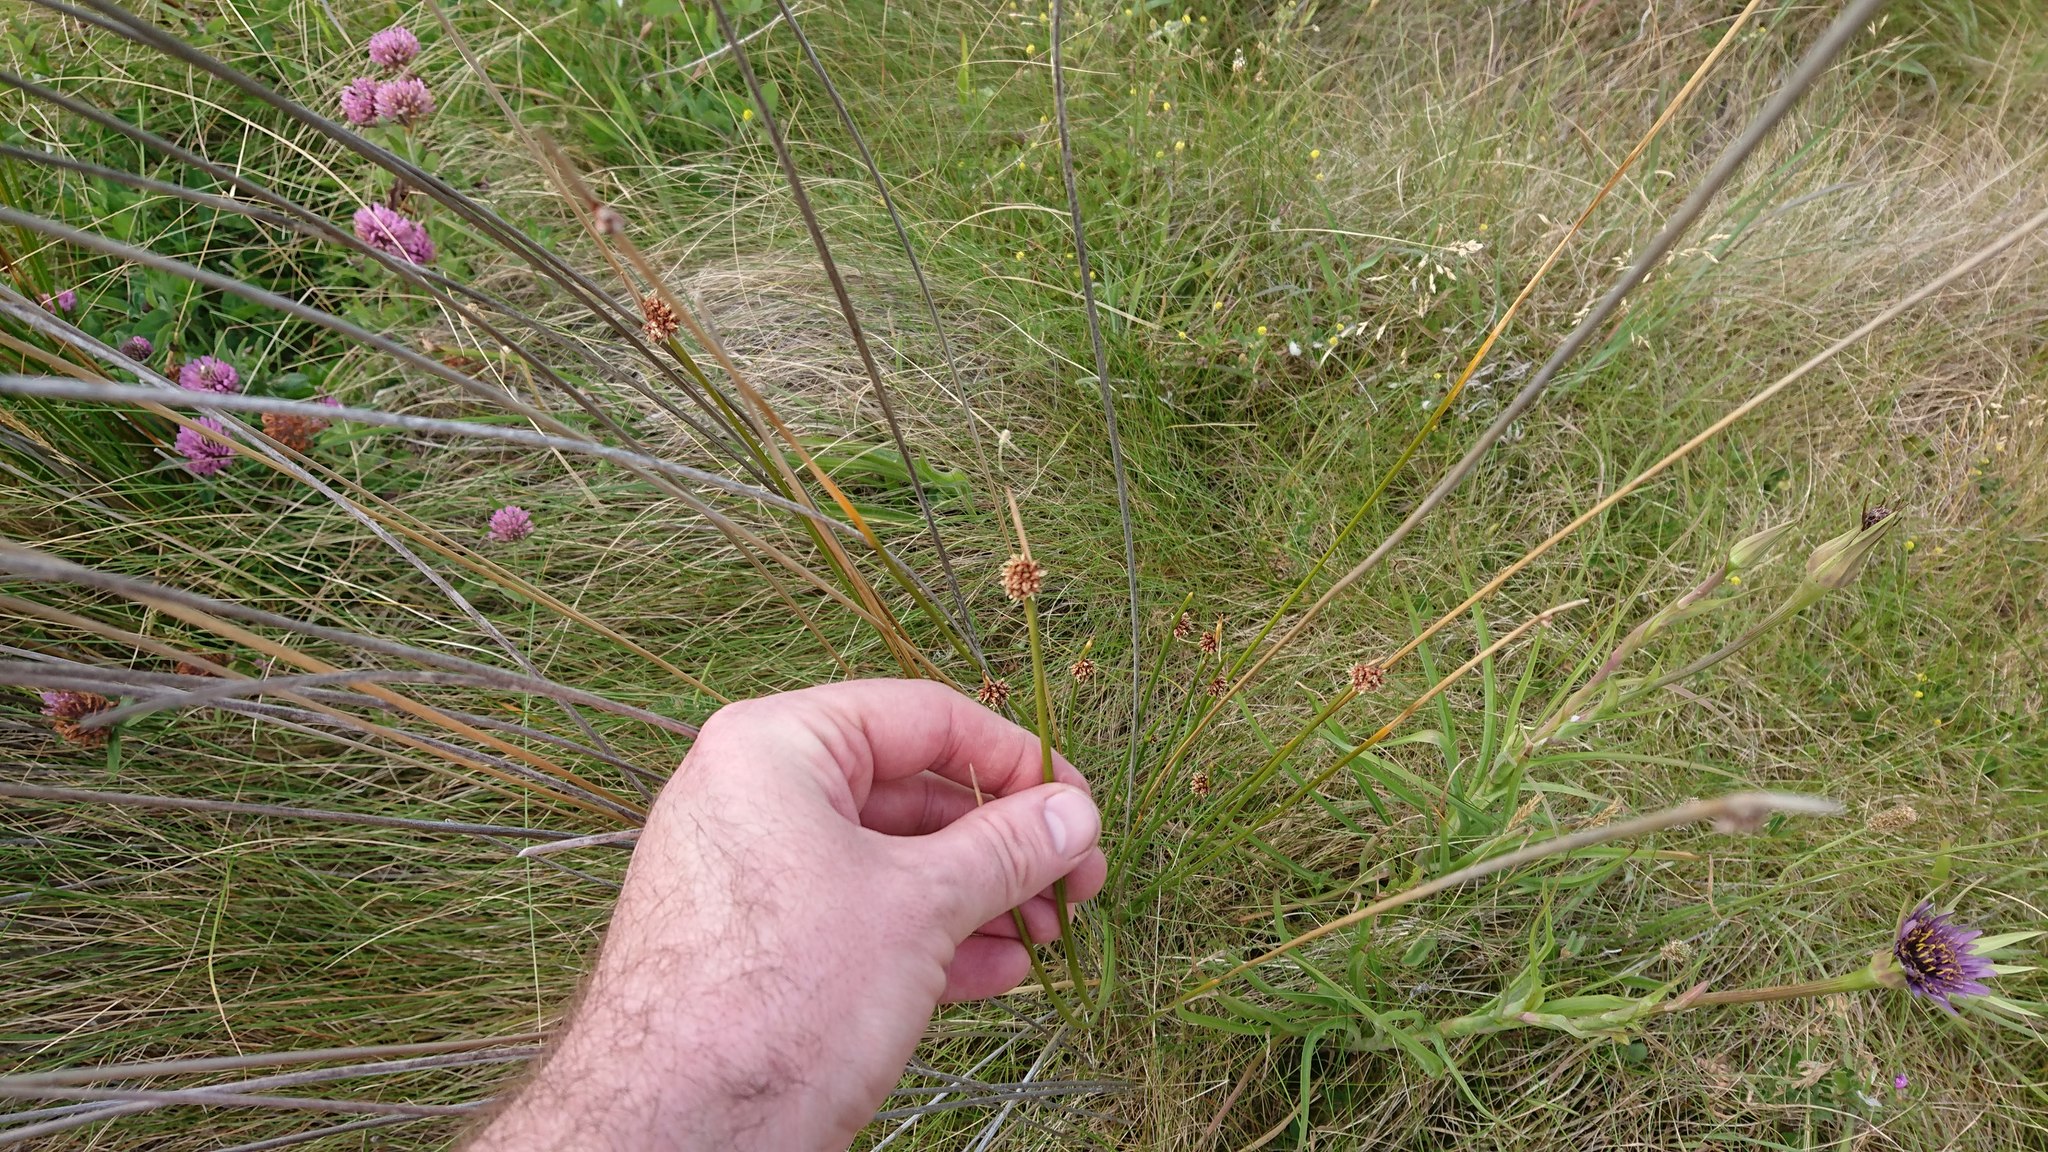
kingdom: Plantae
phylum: Tracheophyta
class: Liliopsida
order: Poales
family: Cyperaceae
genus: Ficinia
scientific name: Ficinia nodosa
